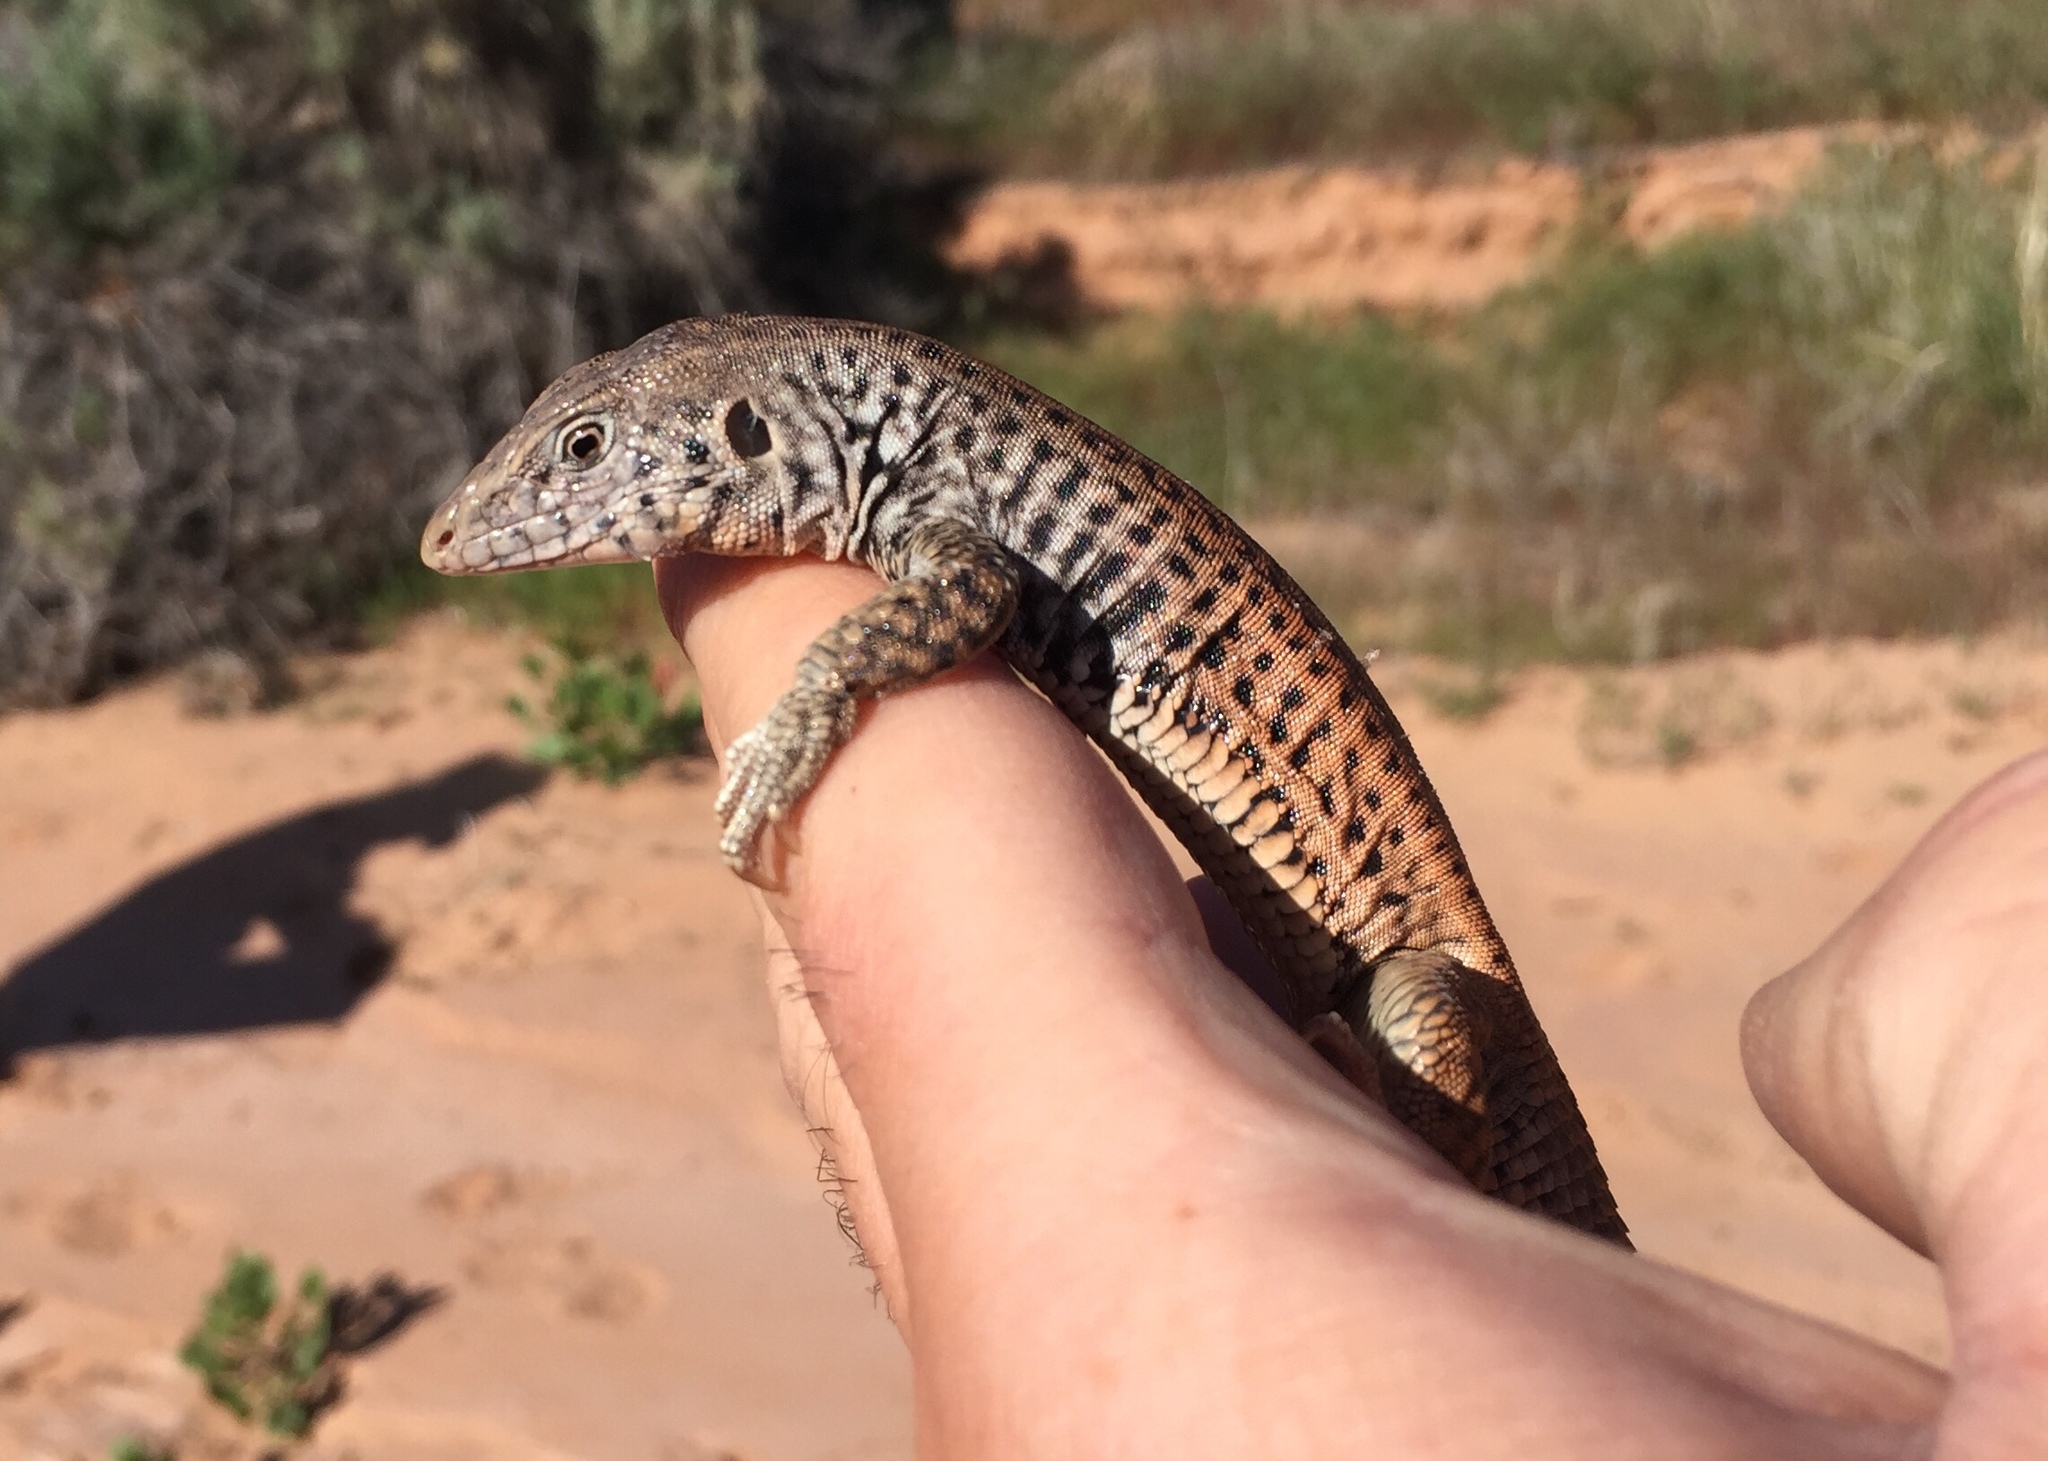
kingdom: Animalia
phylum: Chordata
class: Squamata
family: Teiidae
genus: Aspidoscelis
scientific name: Aspidoscelis tigris
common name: Tiger whiptail
